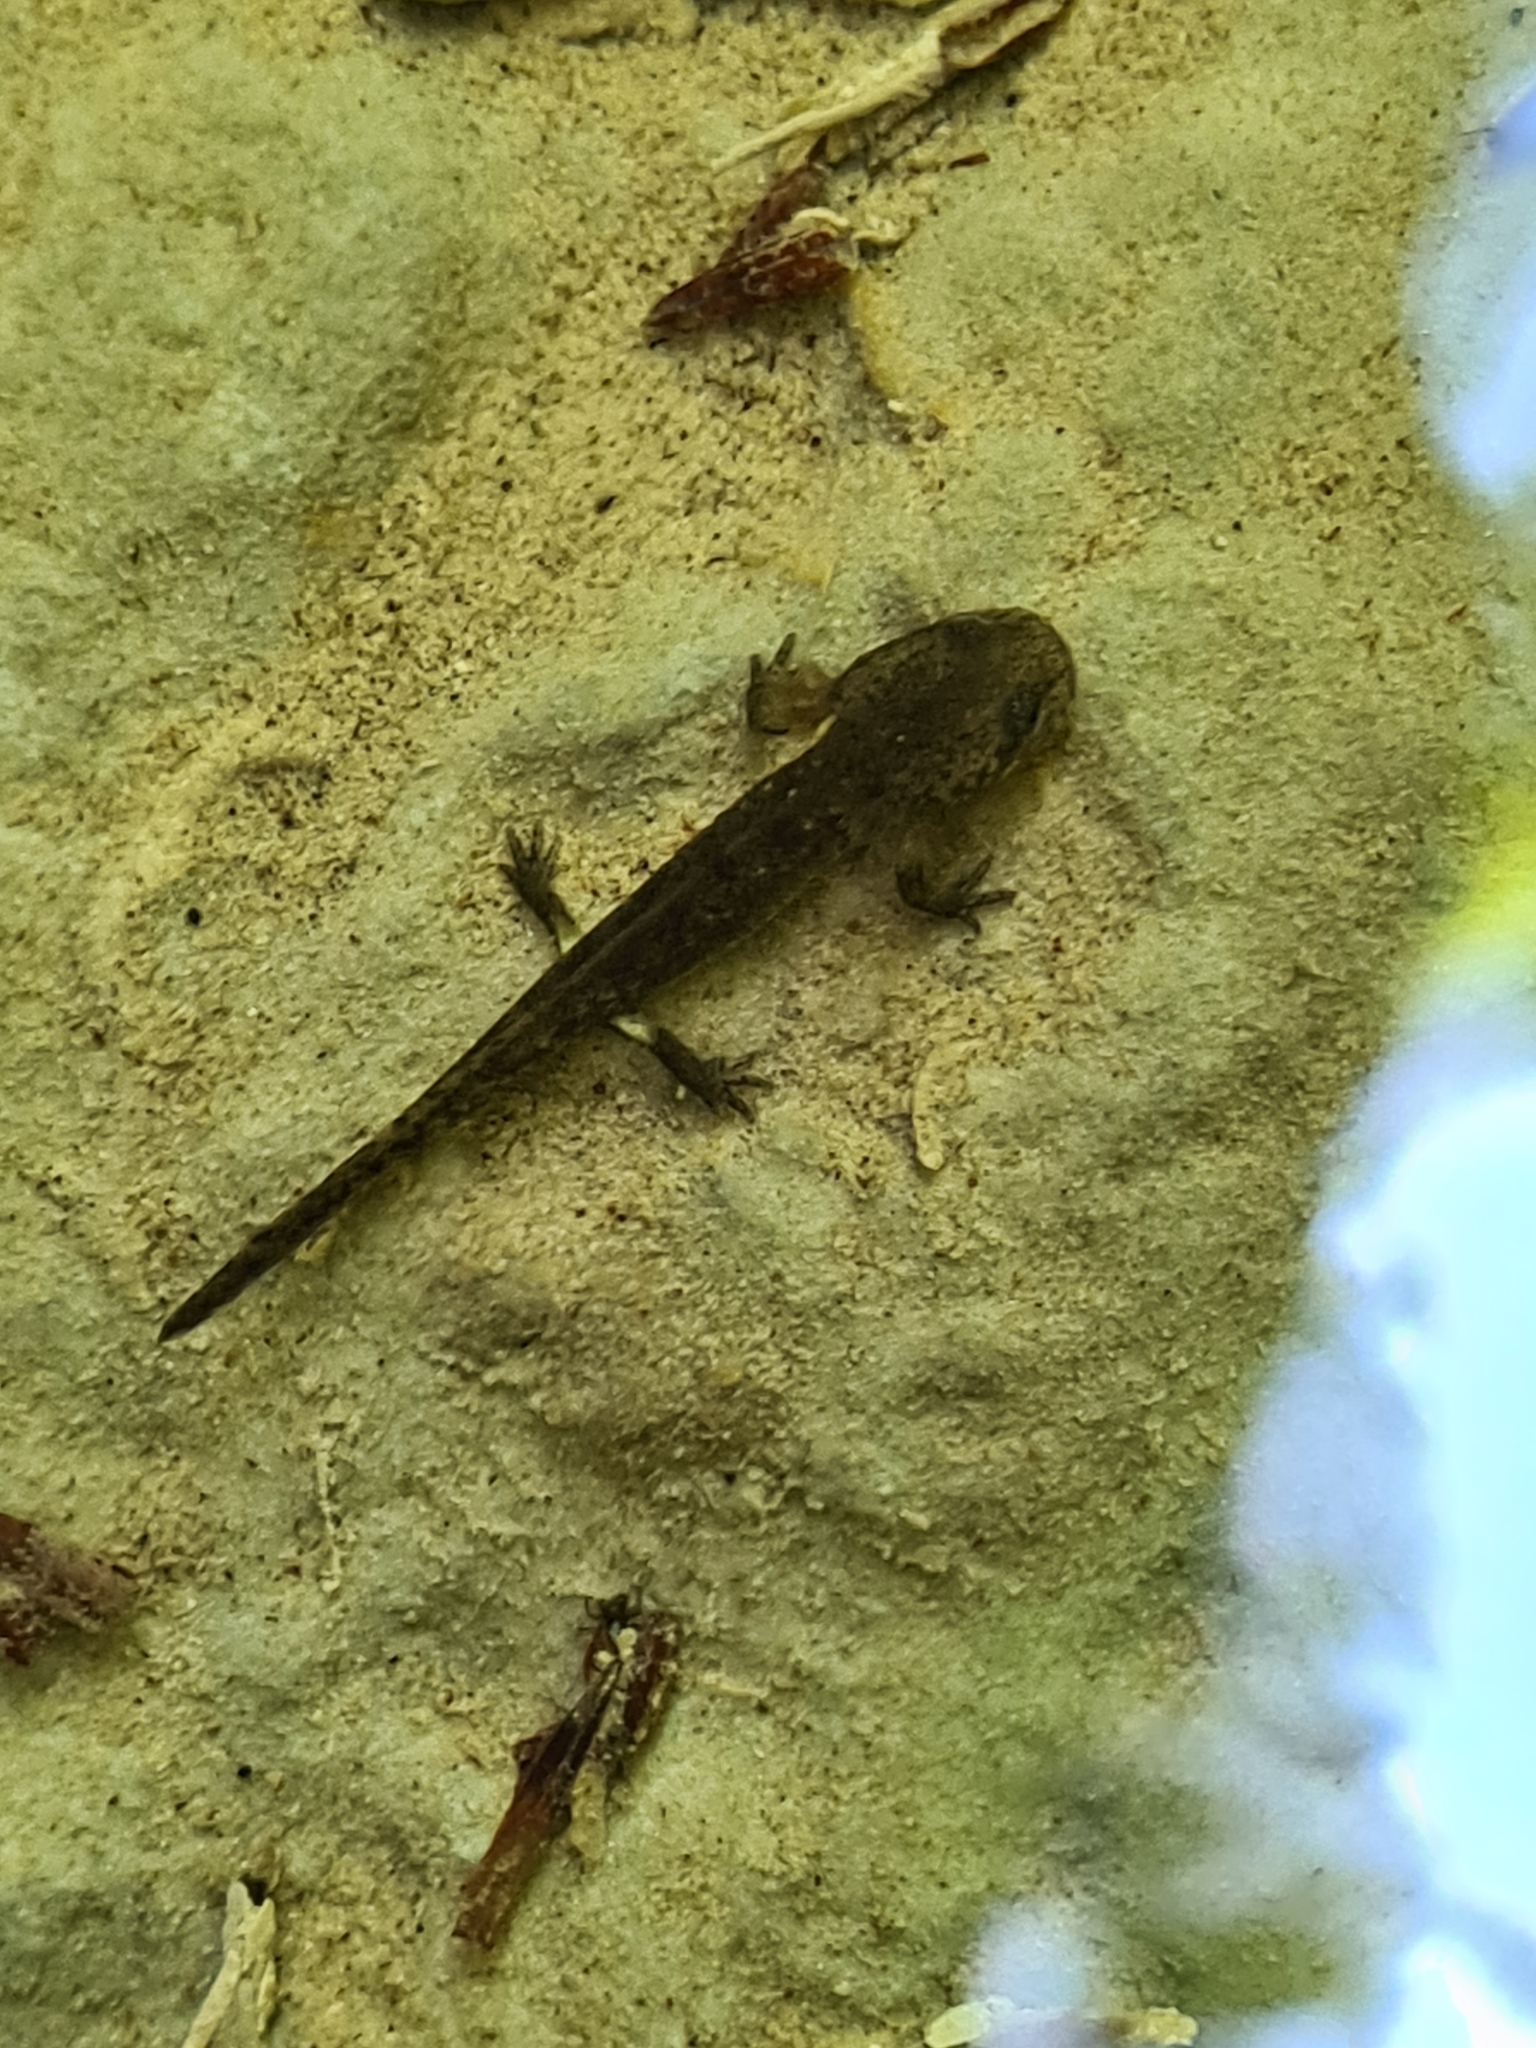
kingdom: Animalia
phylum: Chordata
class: Amphibia
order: Caudata
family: Salamandridae
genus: Salamandra
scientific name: Salamandra salamandra
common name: Fire salamander
